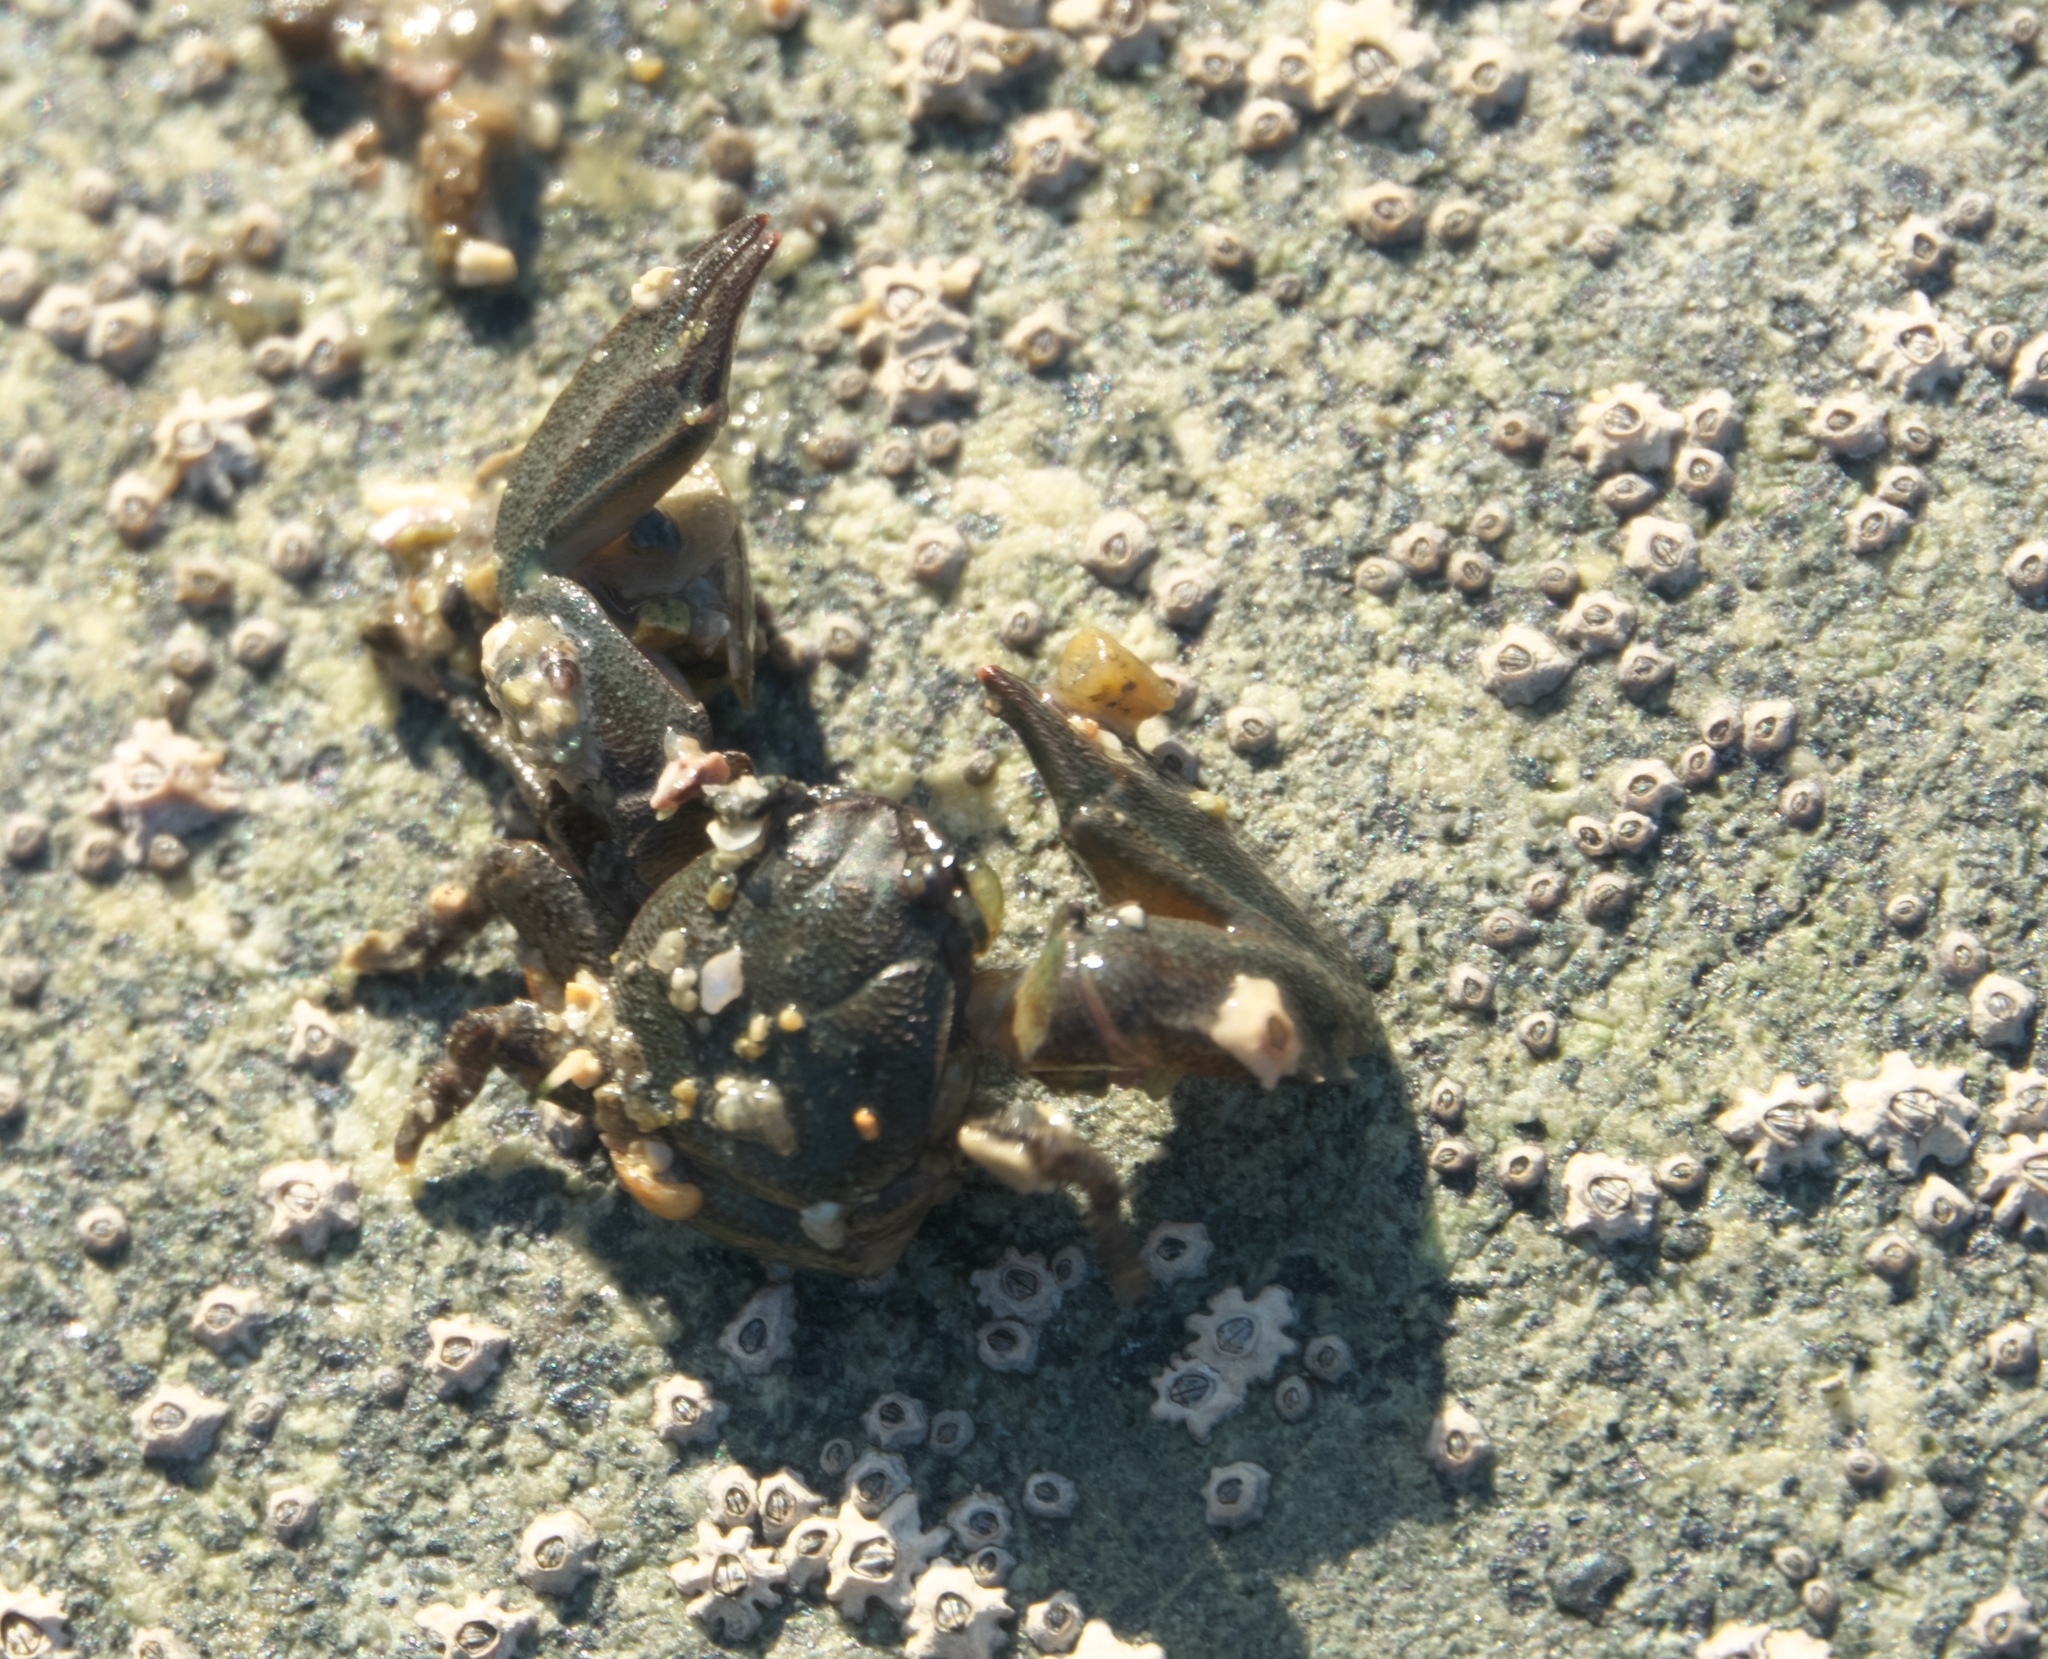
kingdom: Animalia
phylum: Arthropoda
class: Malacostraca
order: Decapoda
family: Porcellanidae
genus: Petrolisthes
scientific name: Petrolisthes elongatus
